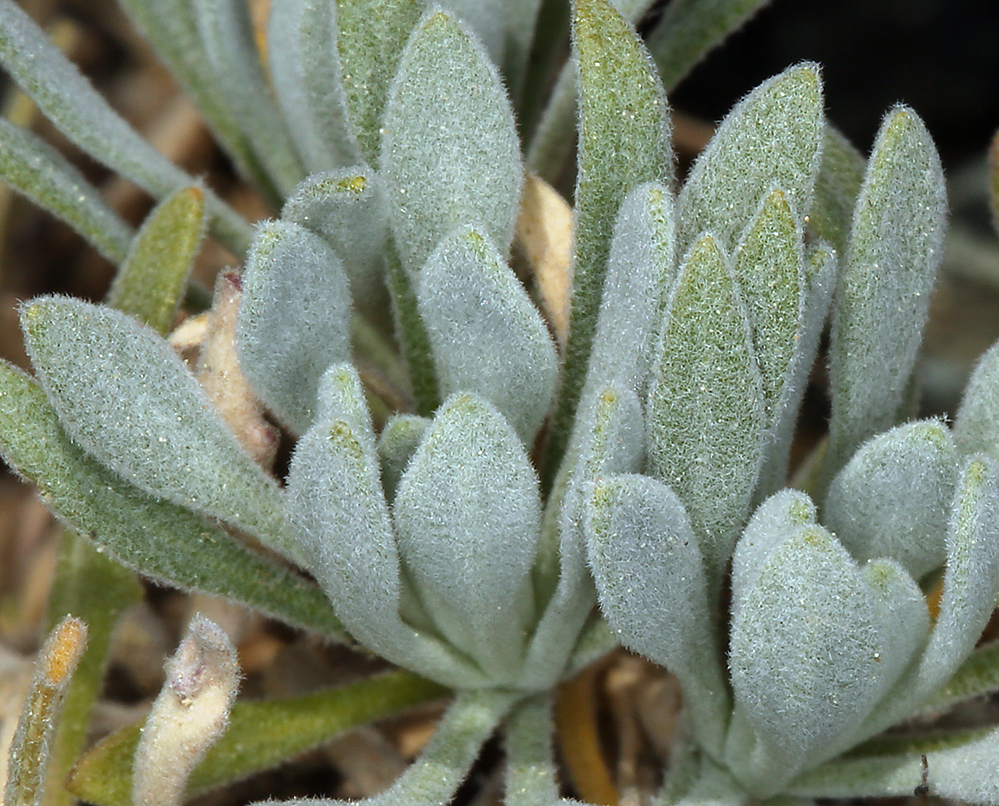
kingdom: Plantae
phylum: Tracheophyta
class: Magnoliopsida
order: Brassicales
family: Brassicaceae
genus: Boechera
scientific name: Boechera serpenticola
